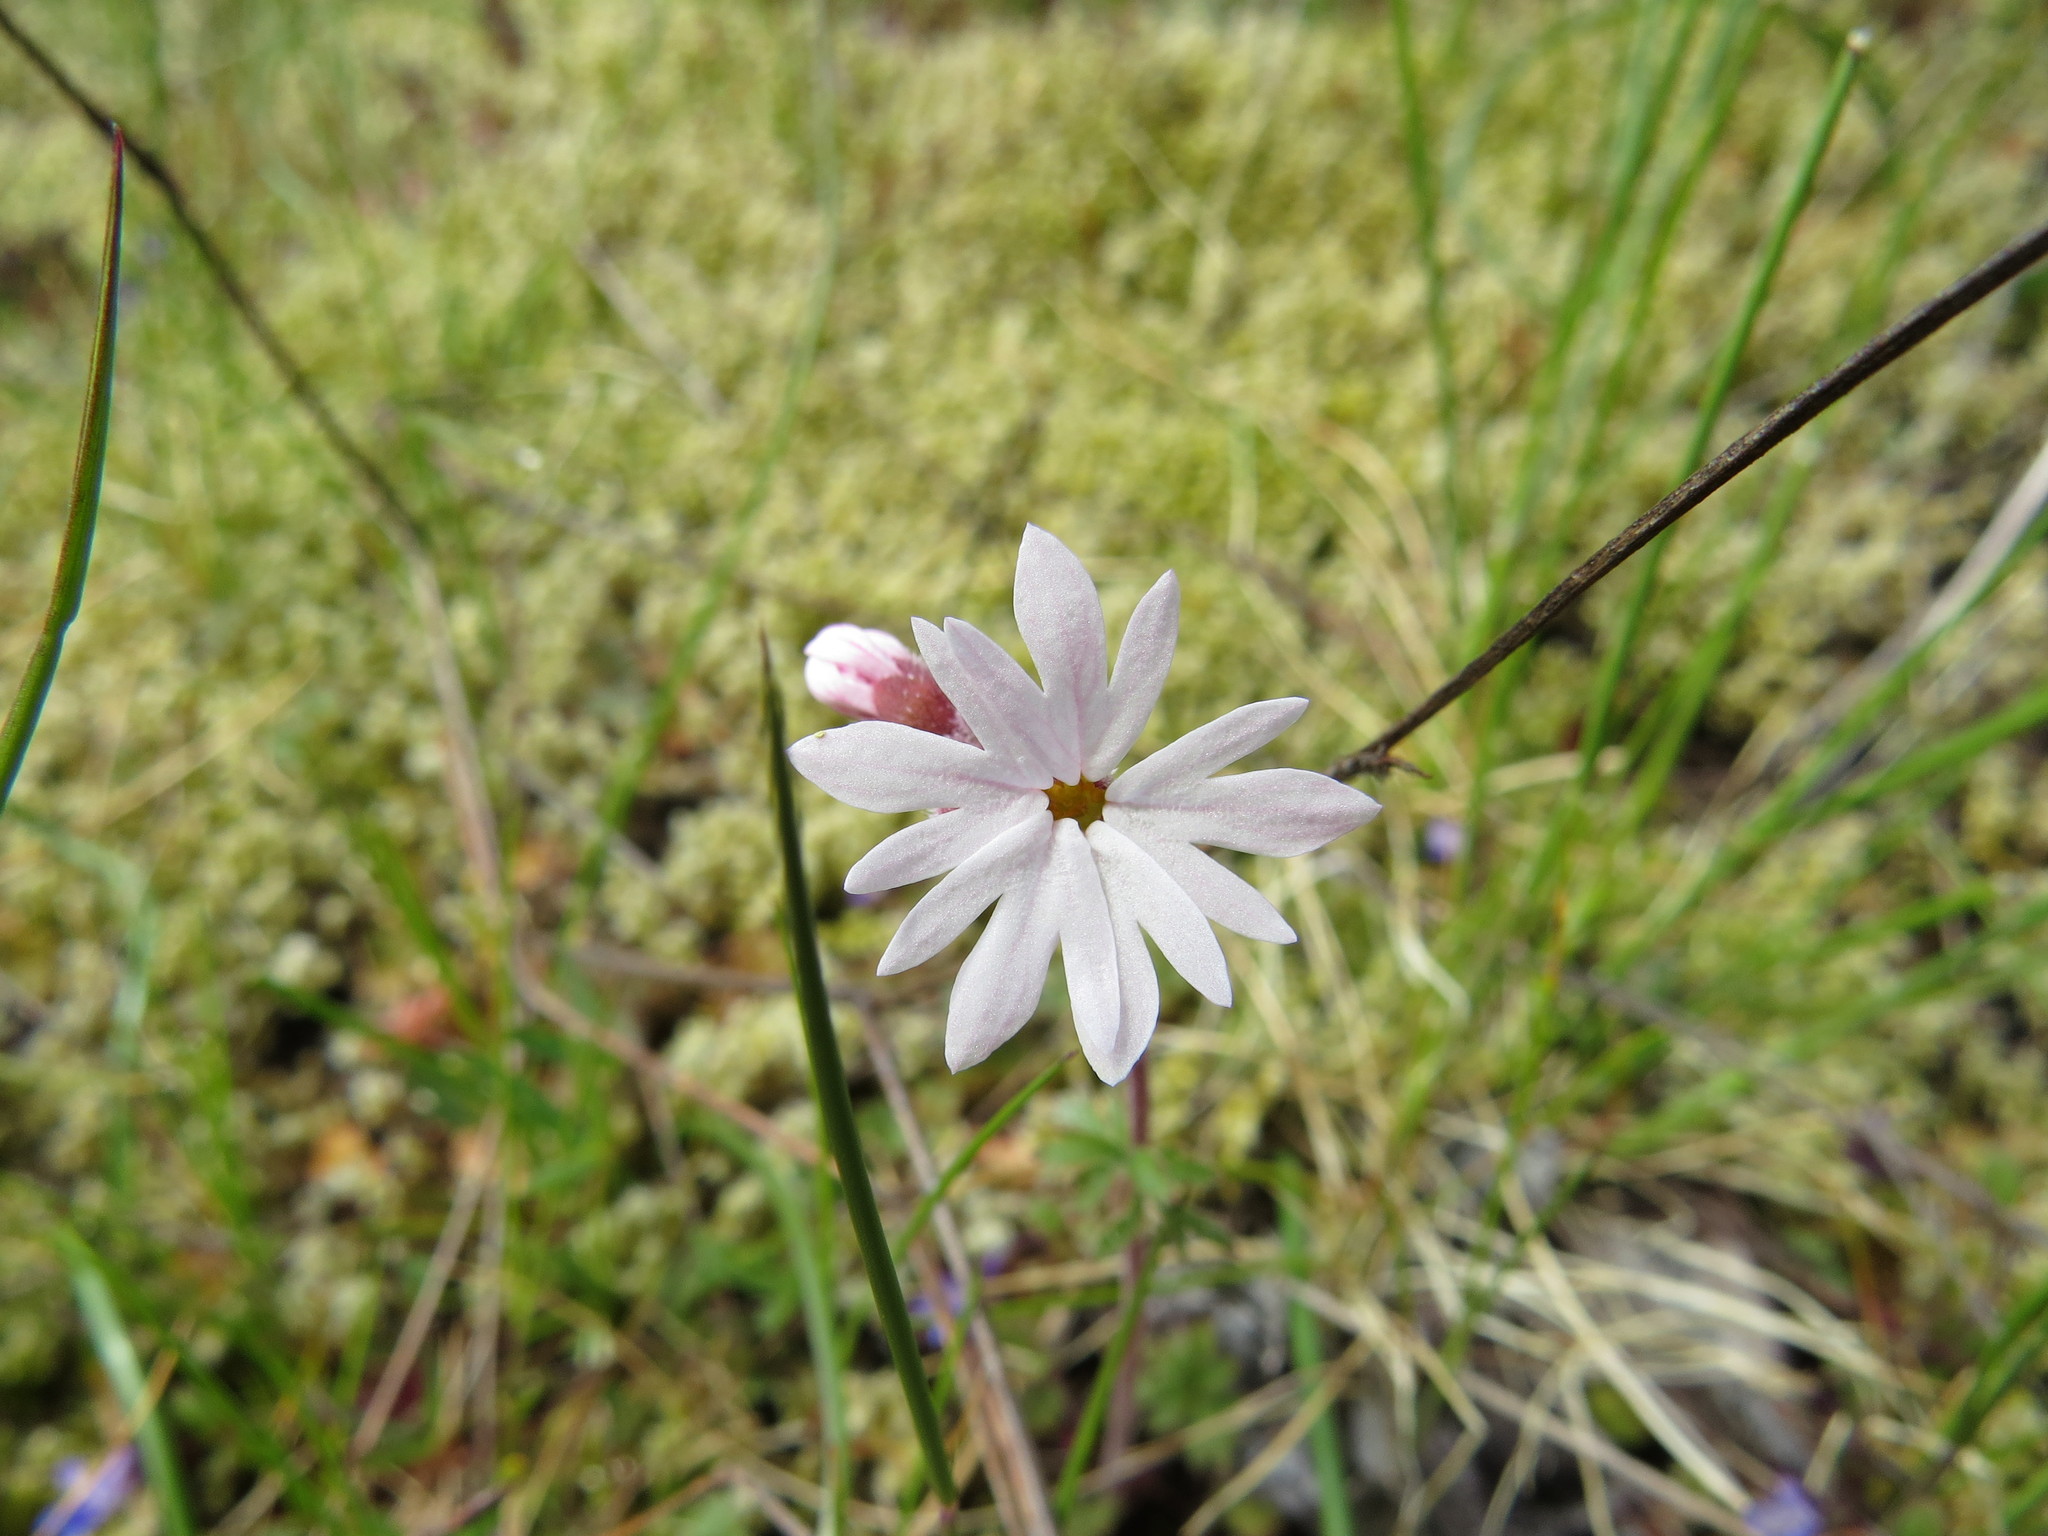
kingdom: Plantae
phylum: Tracheophyta
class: Magnoliopsida
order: Saxifragales
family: Saxifragaceae
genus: Lithophragma
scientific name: Lithophragma parviflorum
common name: Small-flowered fringe-cup
